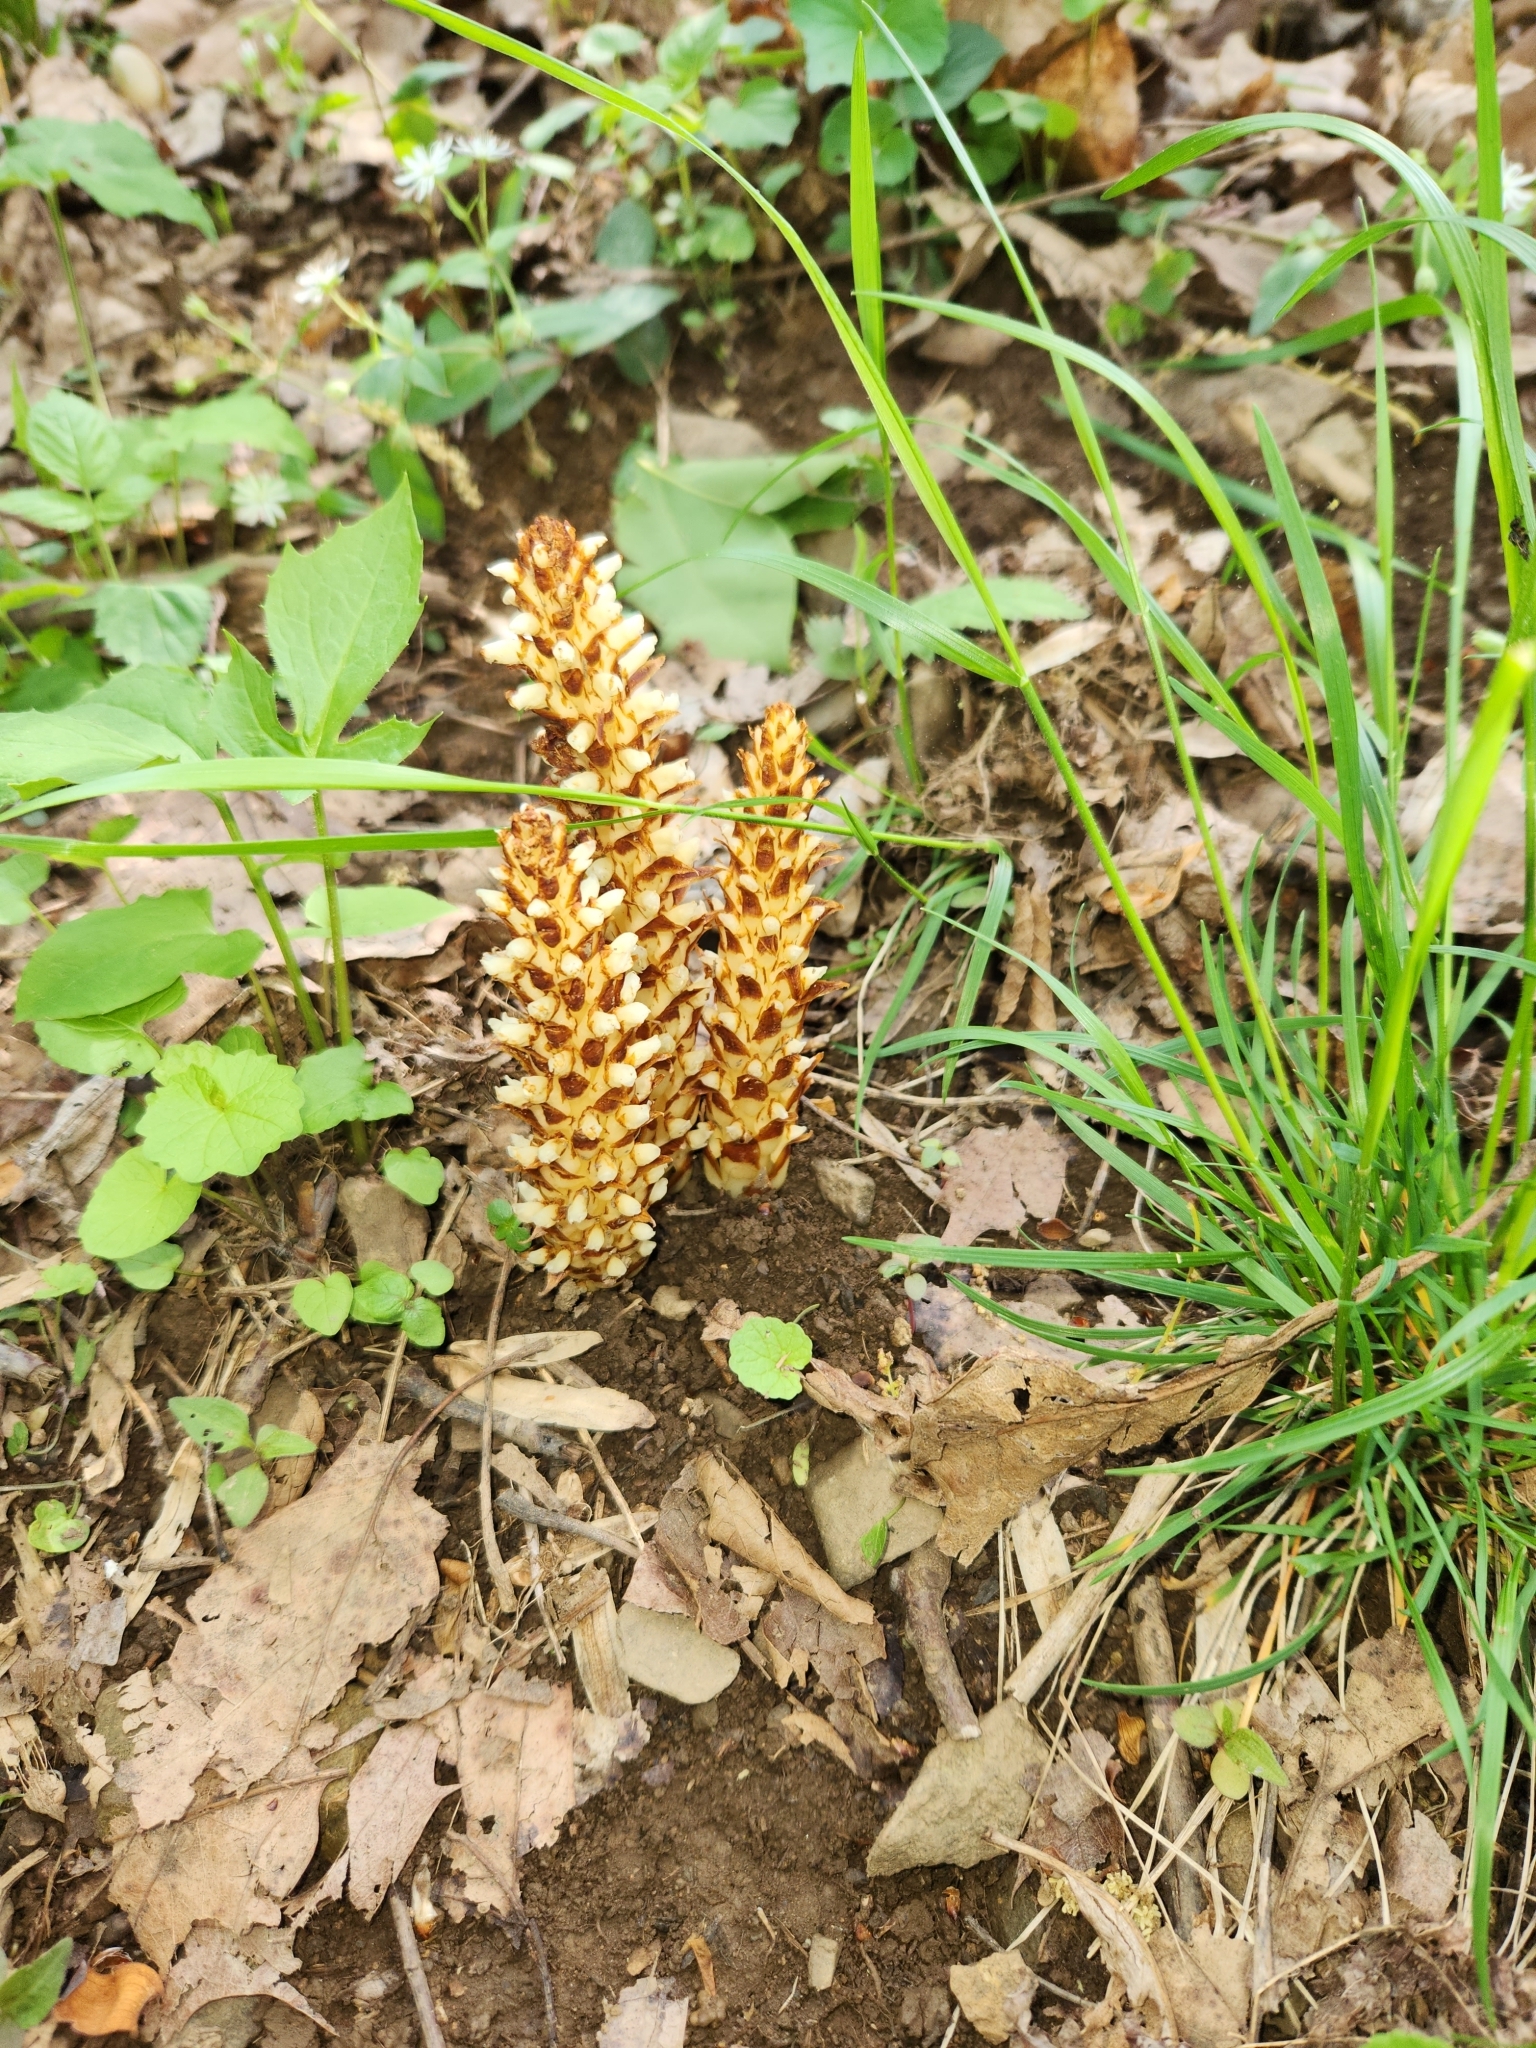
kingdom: Plantae
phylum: Tracheophyta
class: Magnoliopsida
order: Lamiales
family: Orobanchaceae
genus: Conopholis
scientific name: Conopholis americana
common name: American cancer-root
